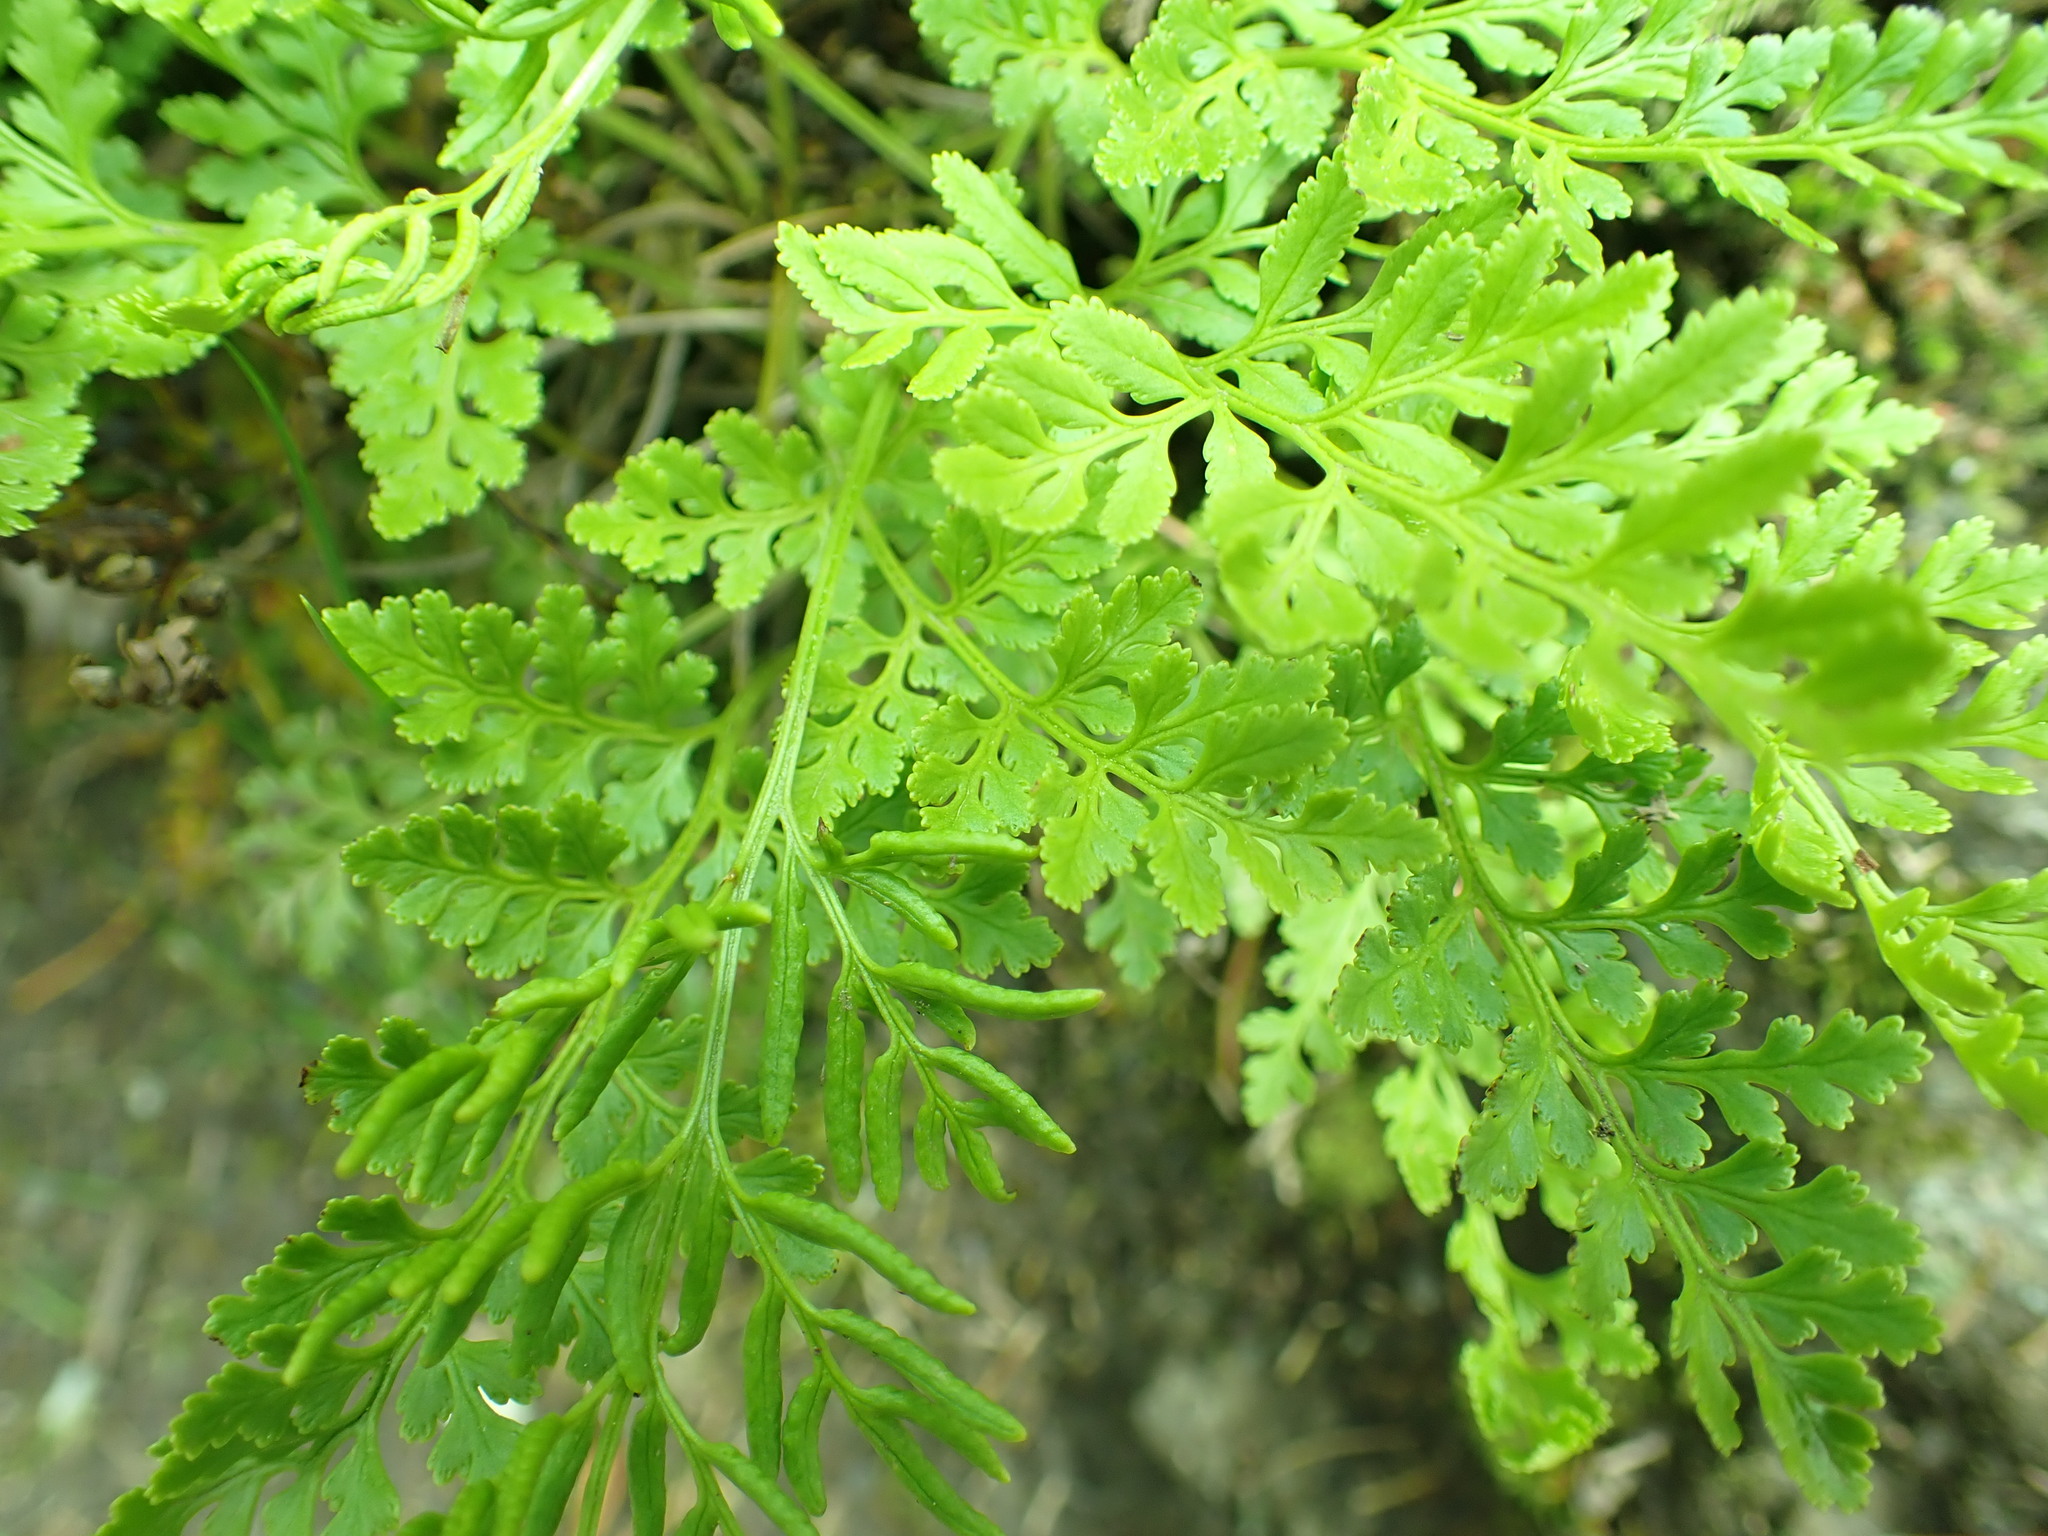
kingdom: Plantae
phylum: Tracheophyta
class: Polypodiopsida
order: Polypodiales
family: Pteridaceae
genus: Cryptogramma
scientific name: Cryptogramma acrostichoides
